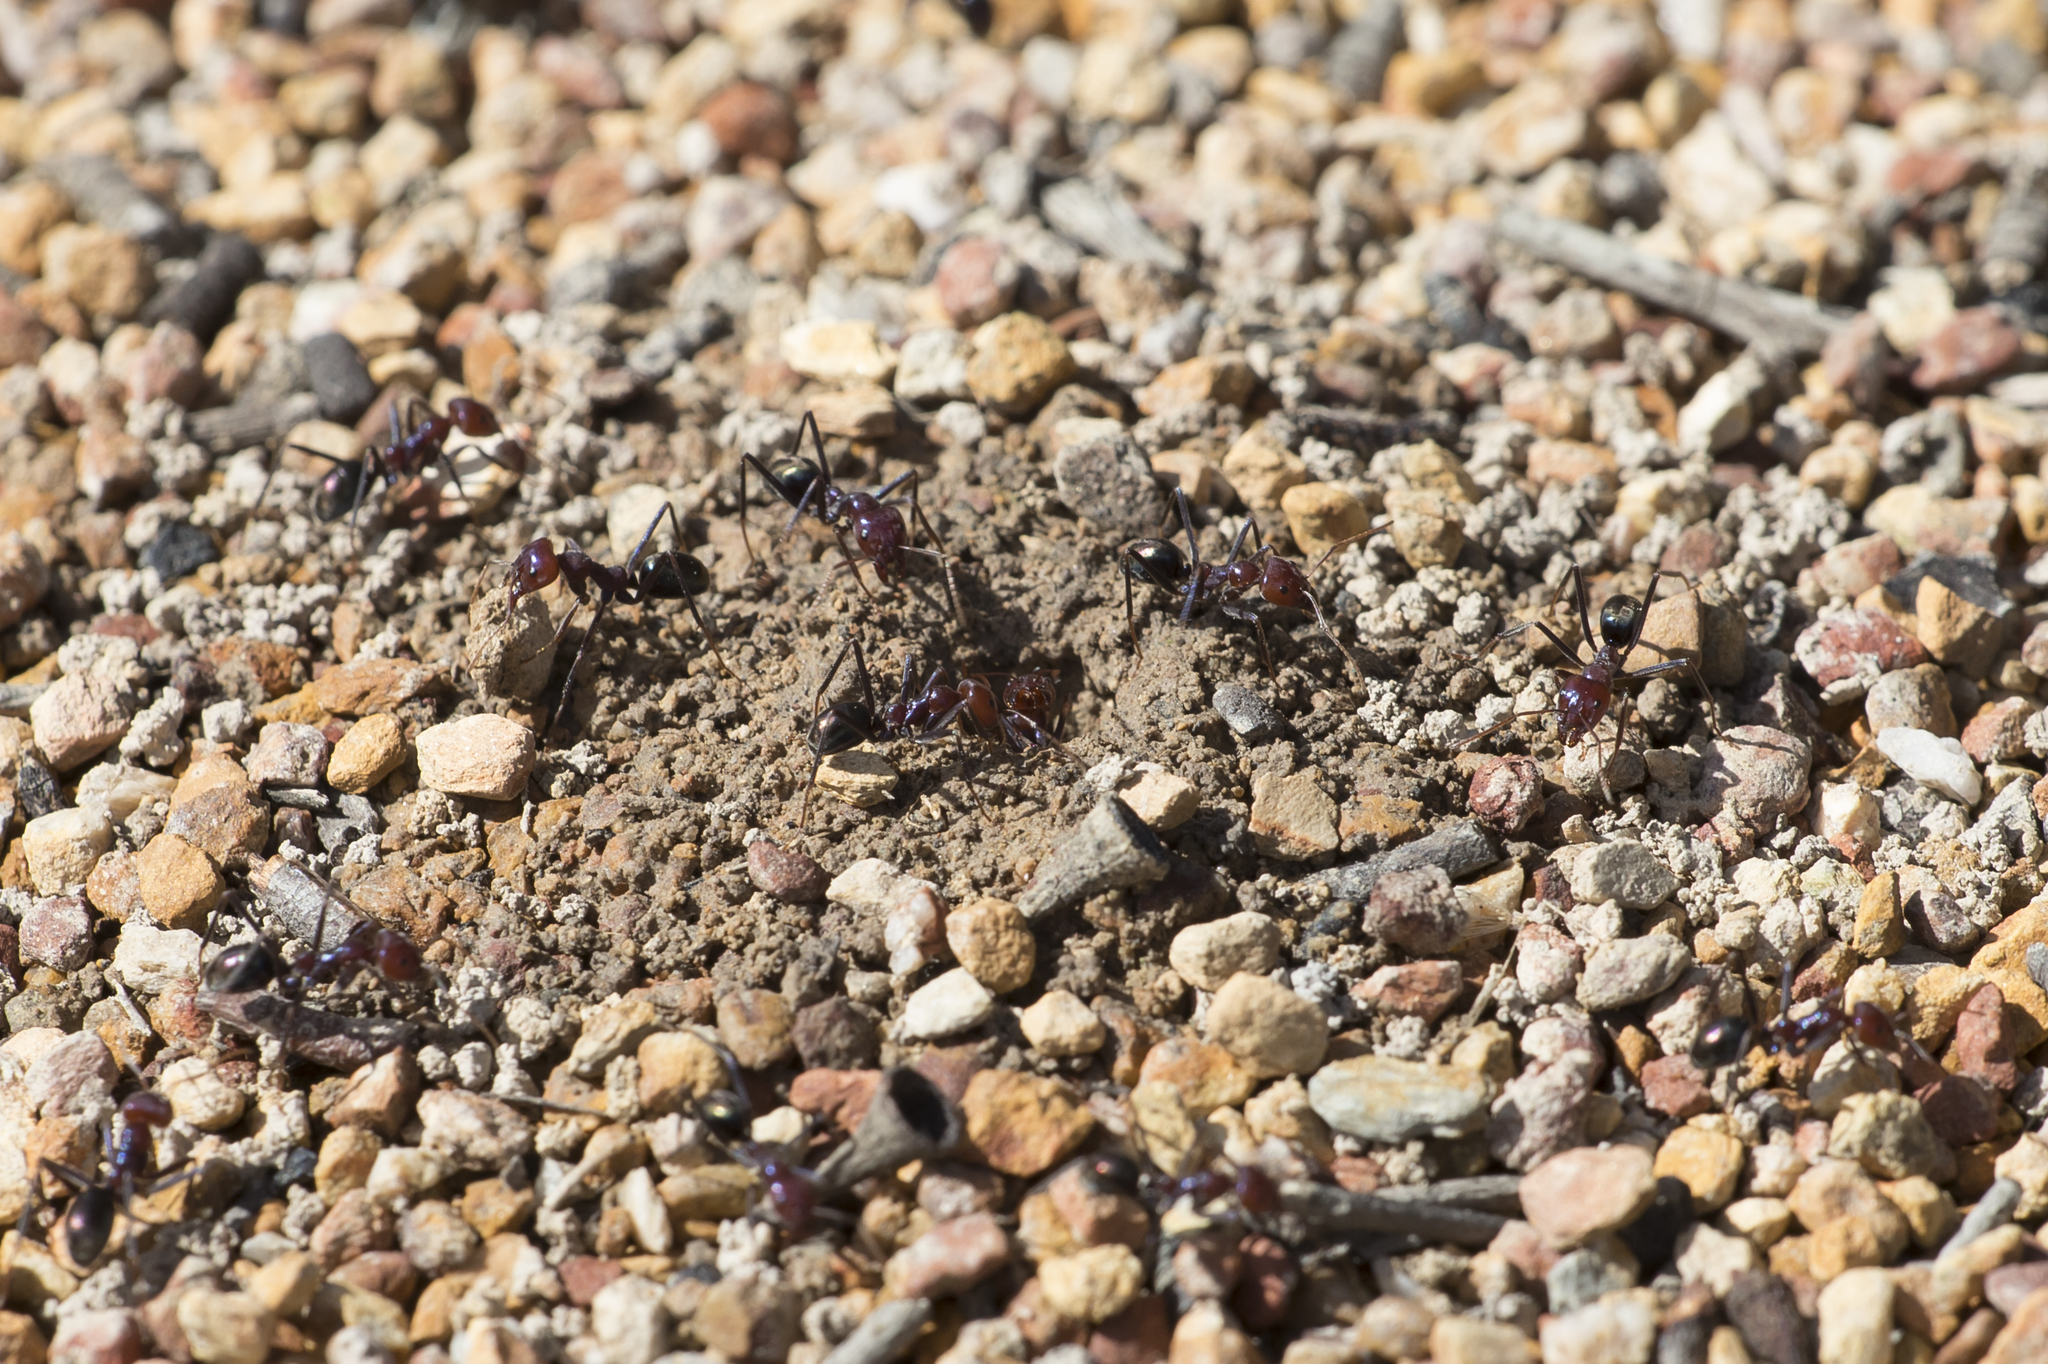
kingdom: Animalia
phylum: Arthropoda
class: Insecta
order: Hymenoptera
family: Formicidae
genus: Iridomyrmex
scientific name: Iridomyrmex purpureus
